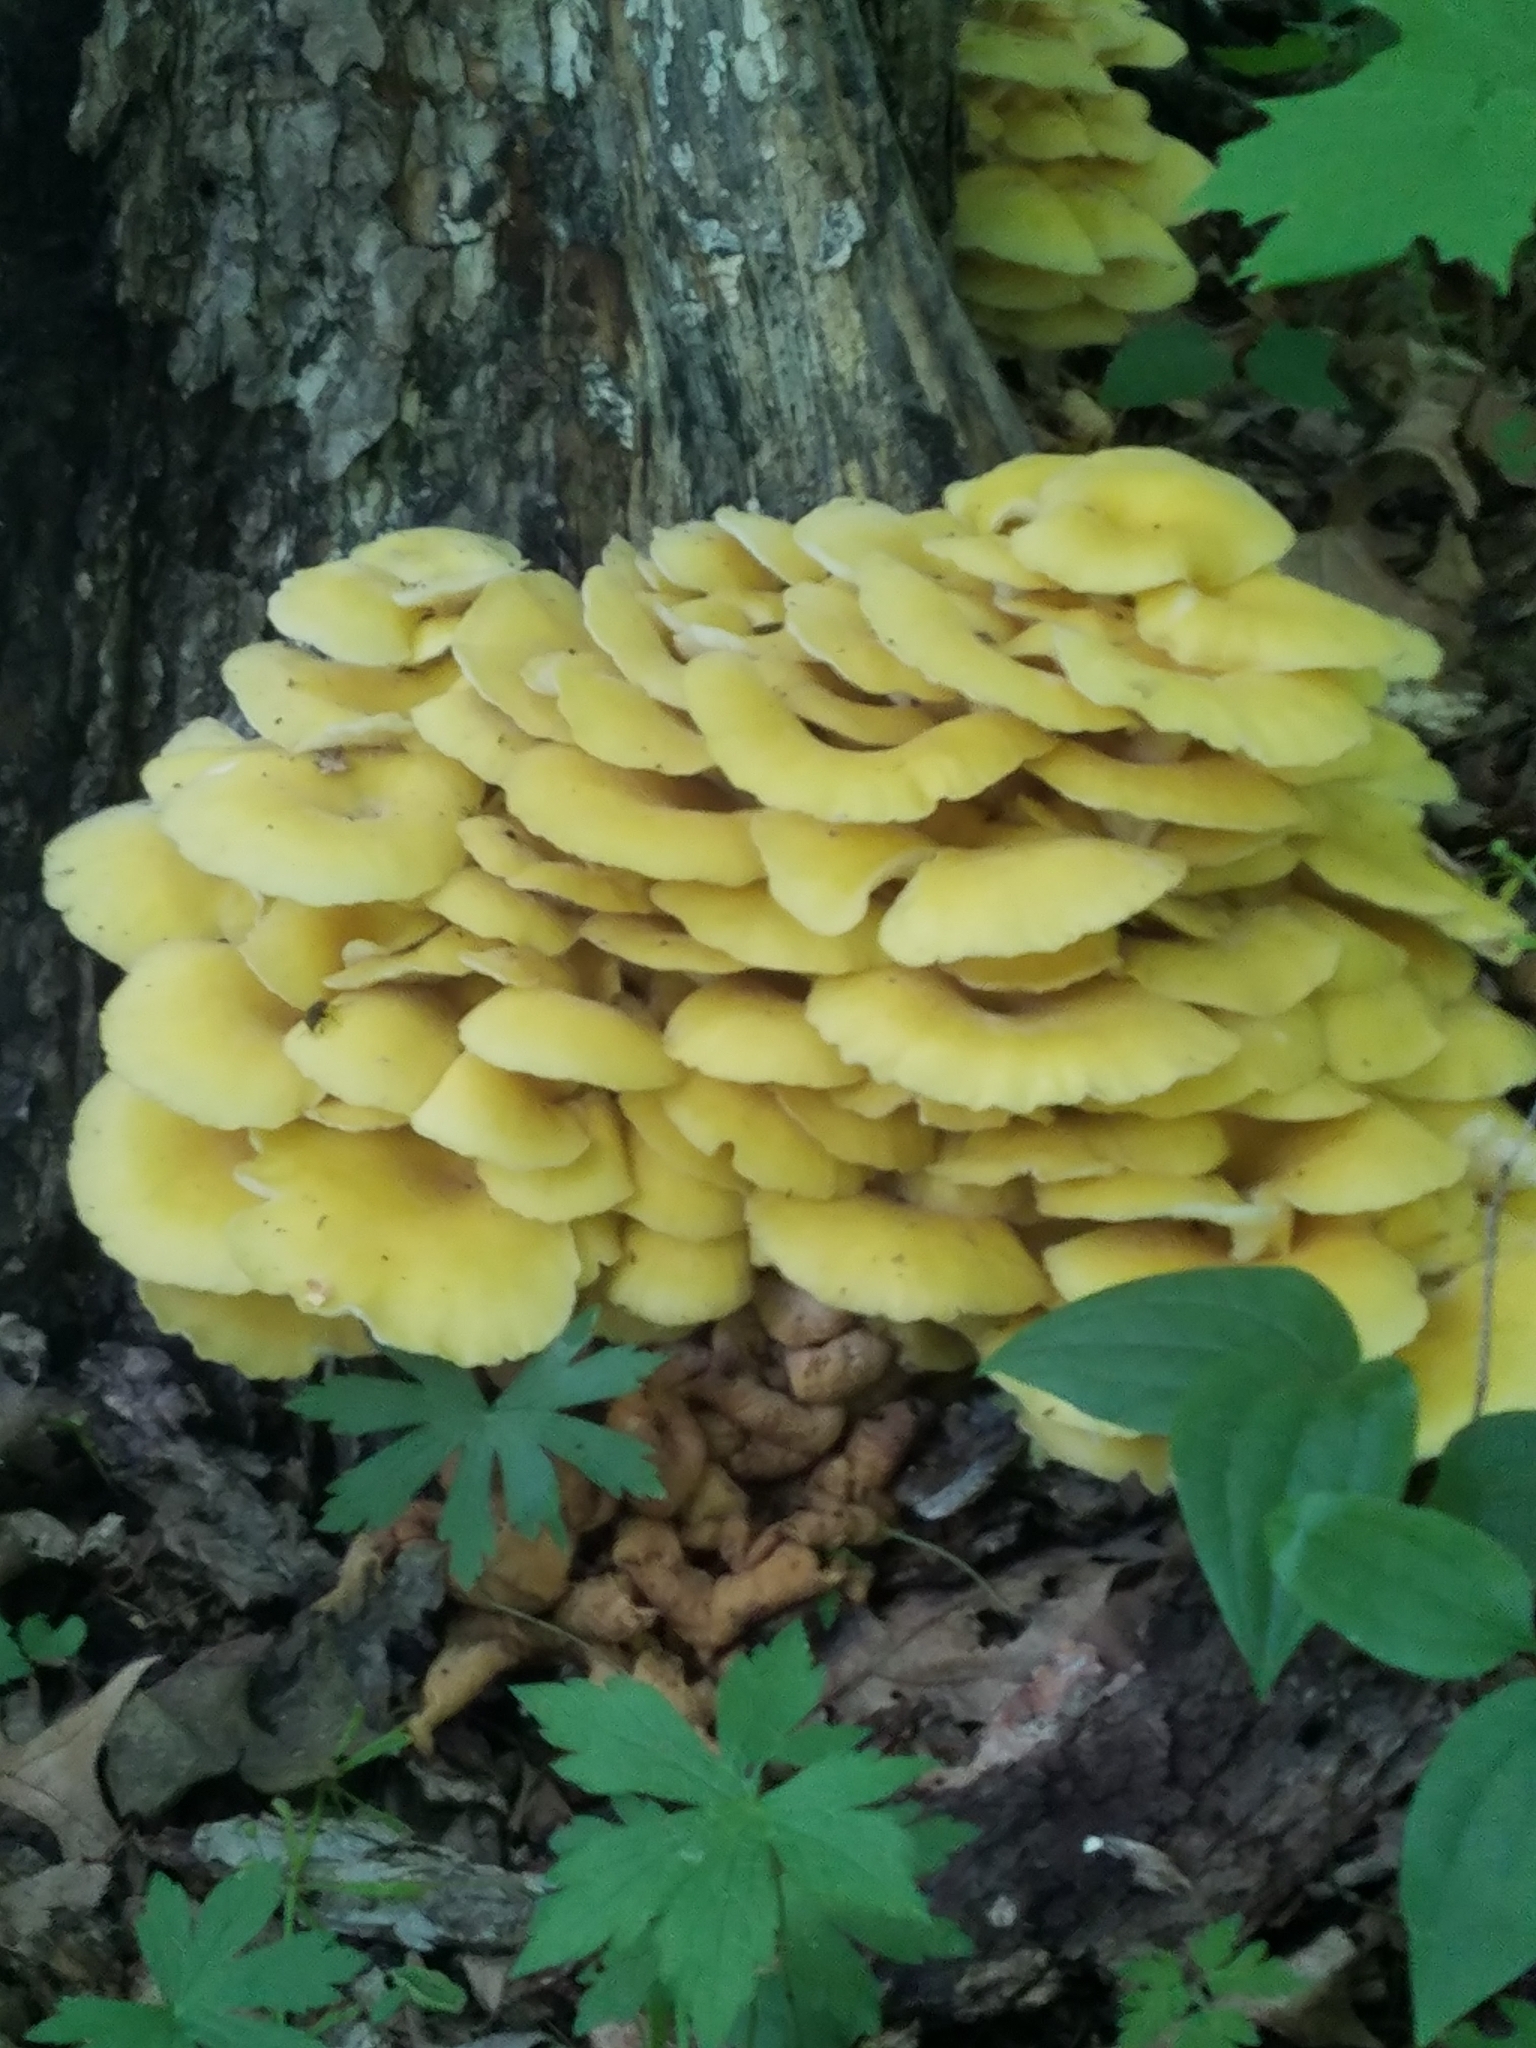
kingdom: Fungi
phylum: Basidiomycota
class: Agaricomycetes
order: Agaricales
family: Pleurotaceae
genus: Pleurotus
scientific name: Pleurotus citrinopileatus
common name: Golden oyster mushroom
